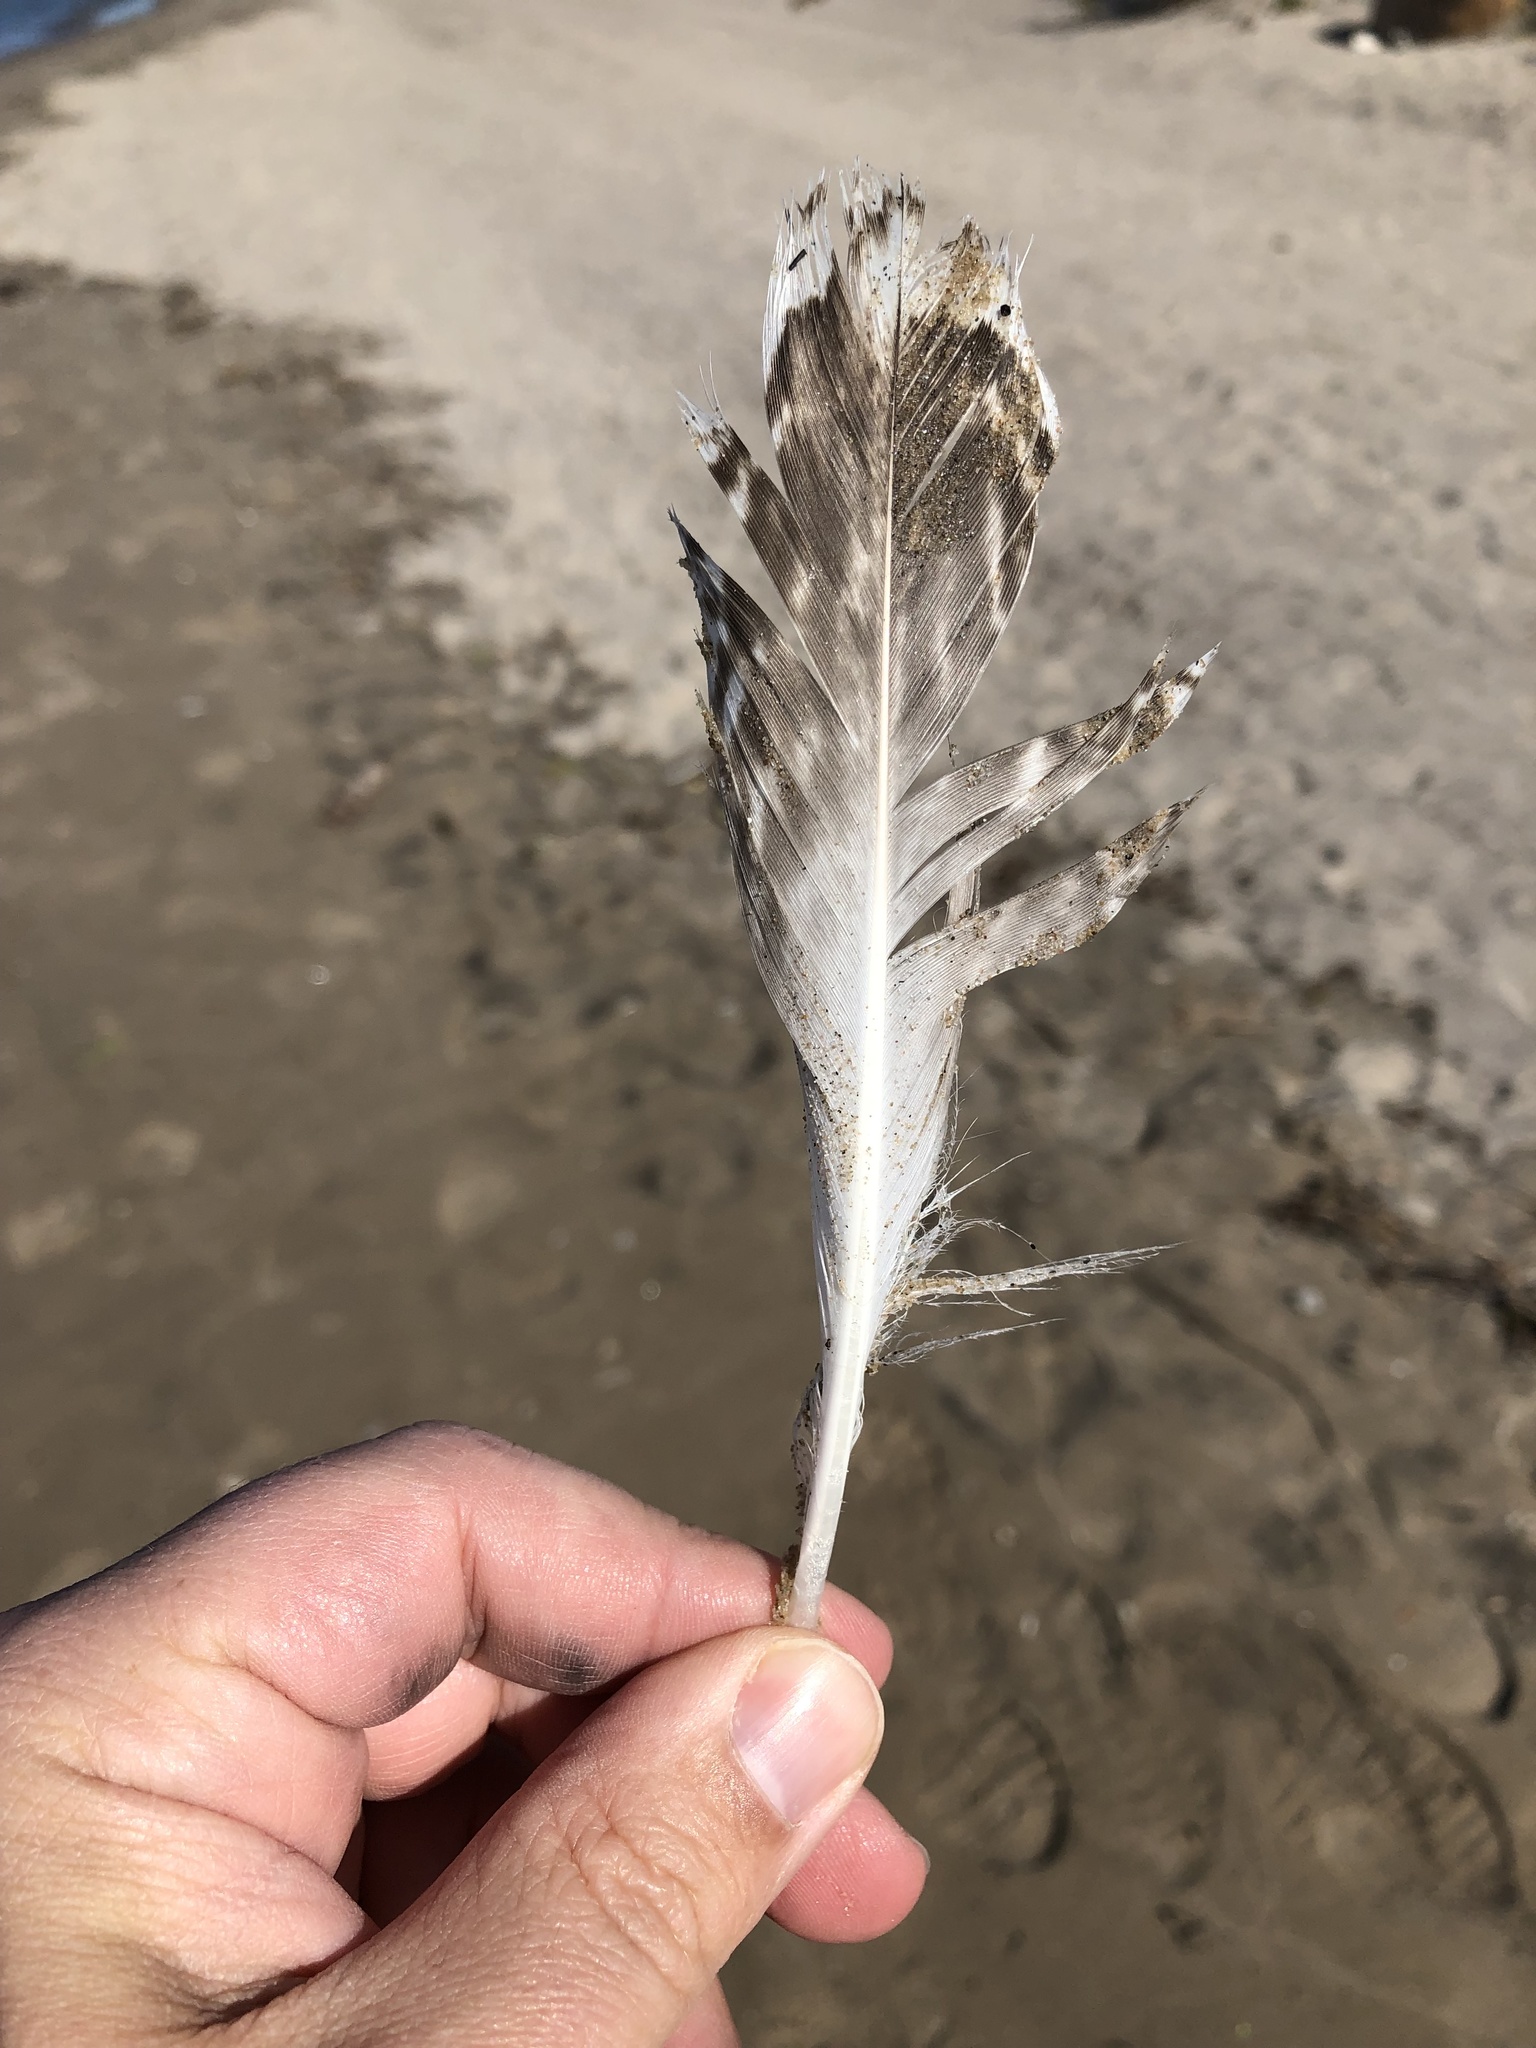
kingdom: Animalia
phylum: Chordata
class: Aves
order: Charadriiformes
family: Laridae
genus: Larus
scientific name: Larus argentatus
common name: Herring gull
